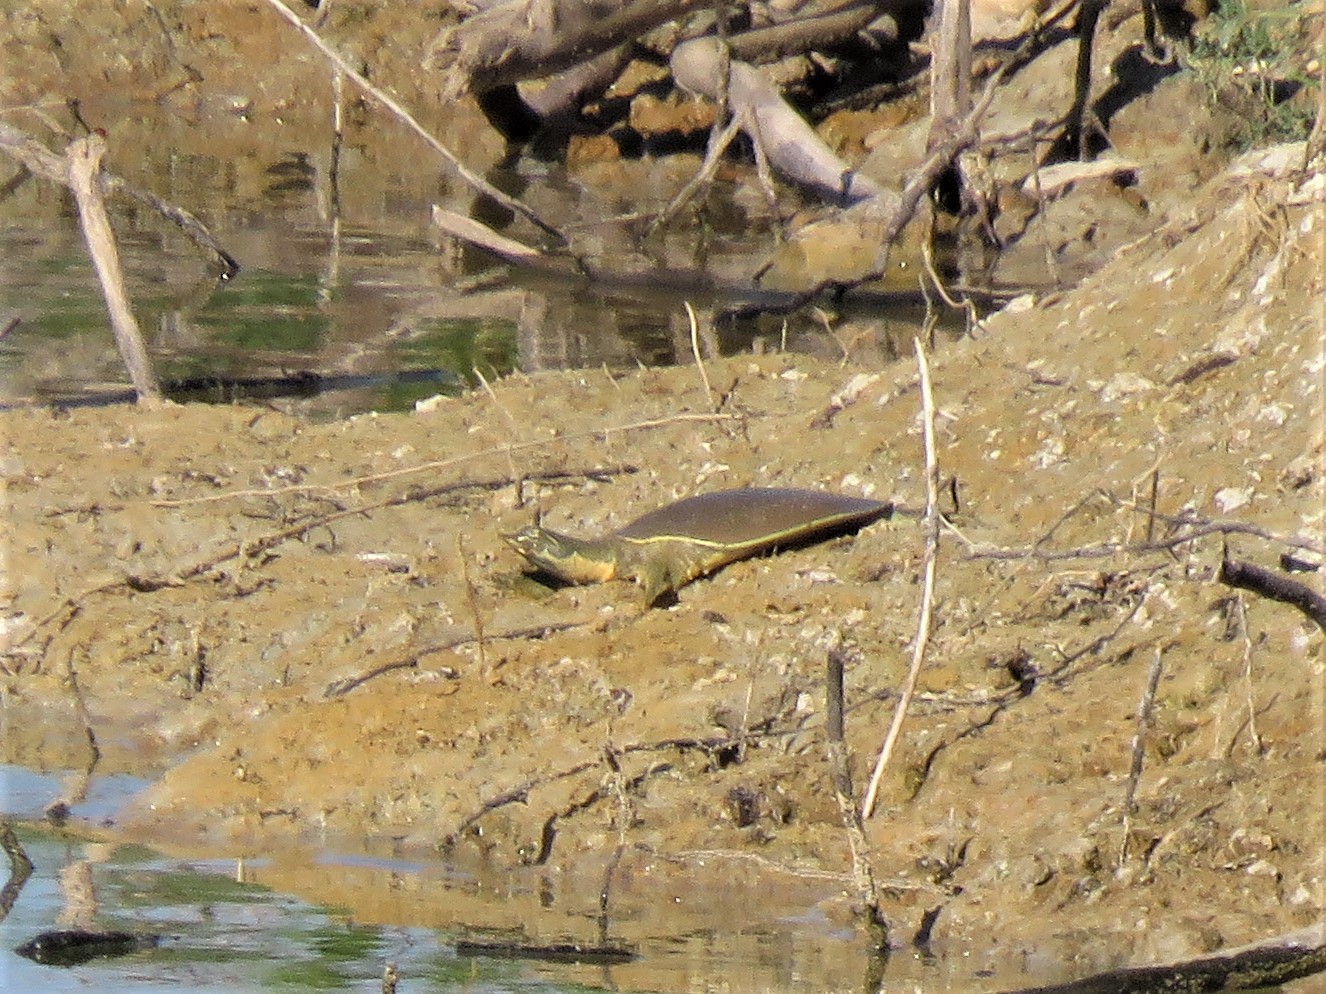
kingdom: Animalia
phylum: Chordata
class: Testudines
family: Trionychidae
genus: Apalone
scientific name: Apalone spinifera
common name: Spiny softshell turtle
